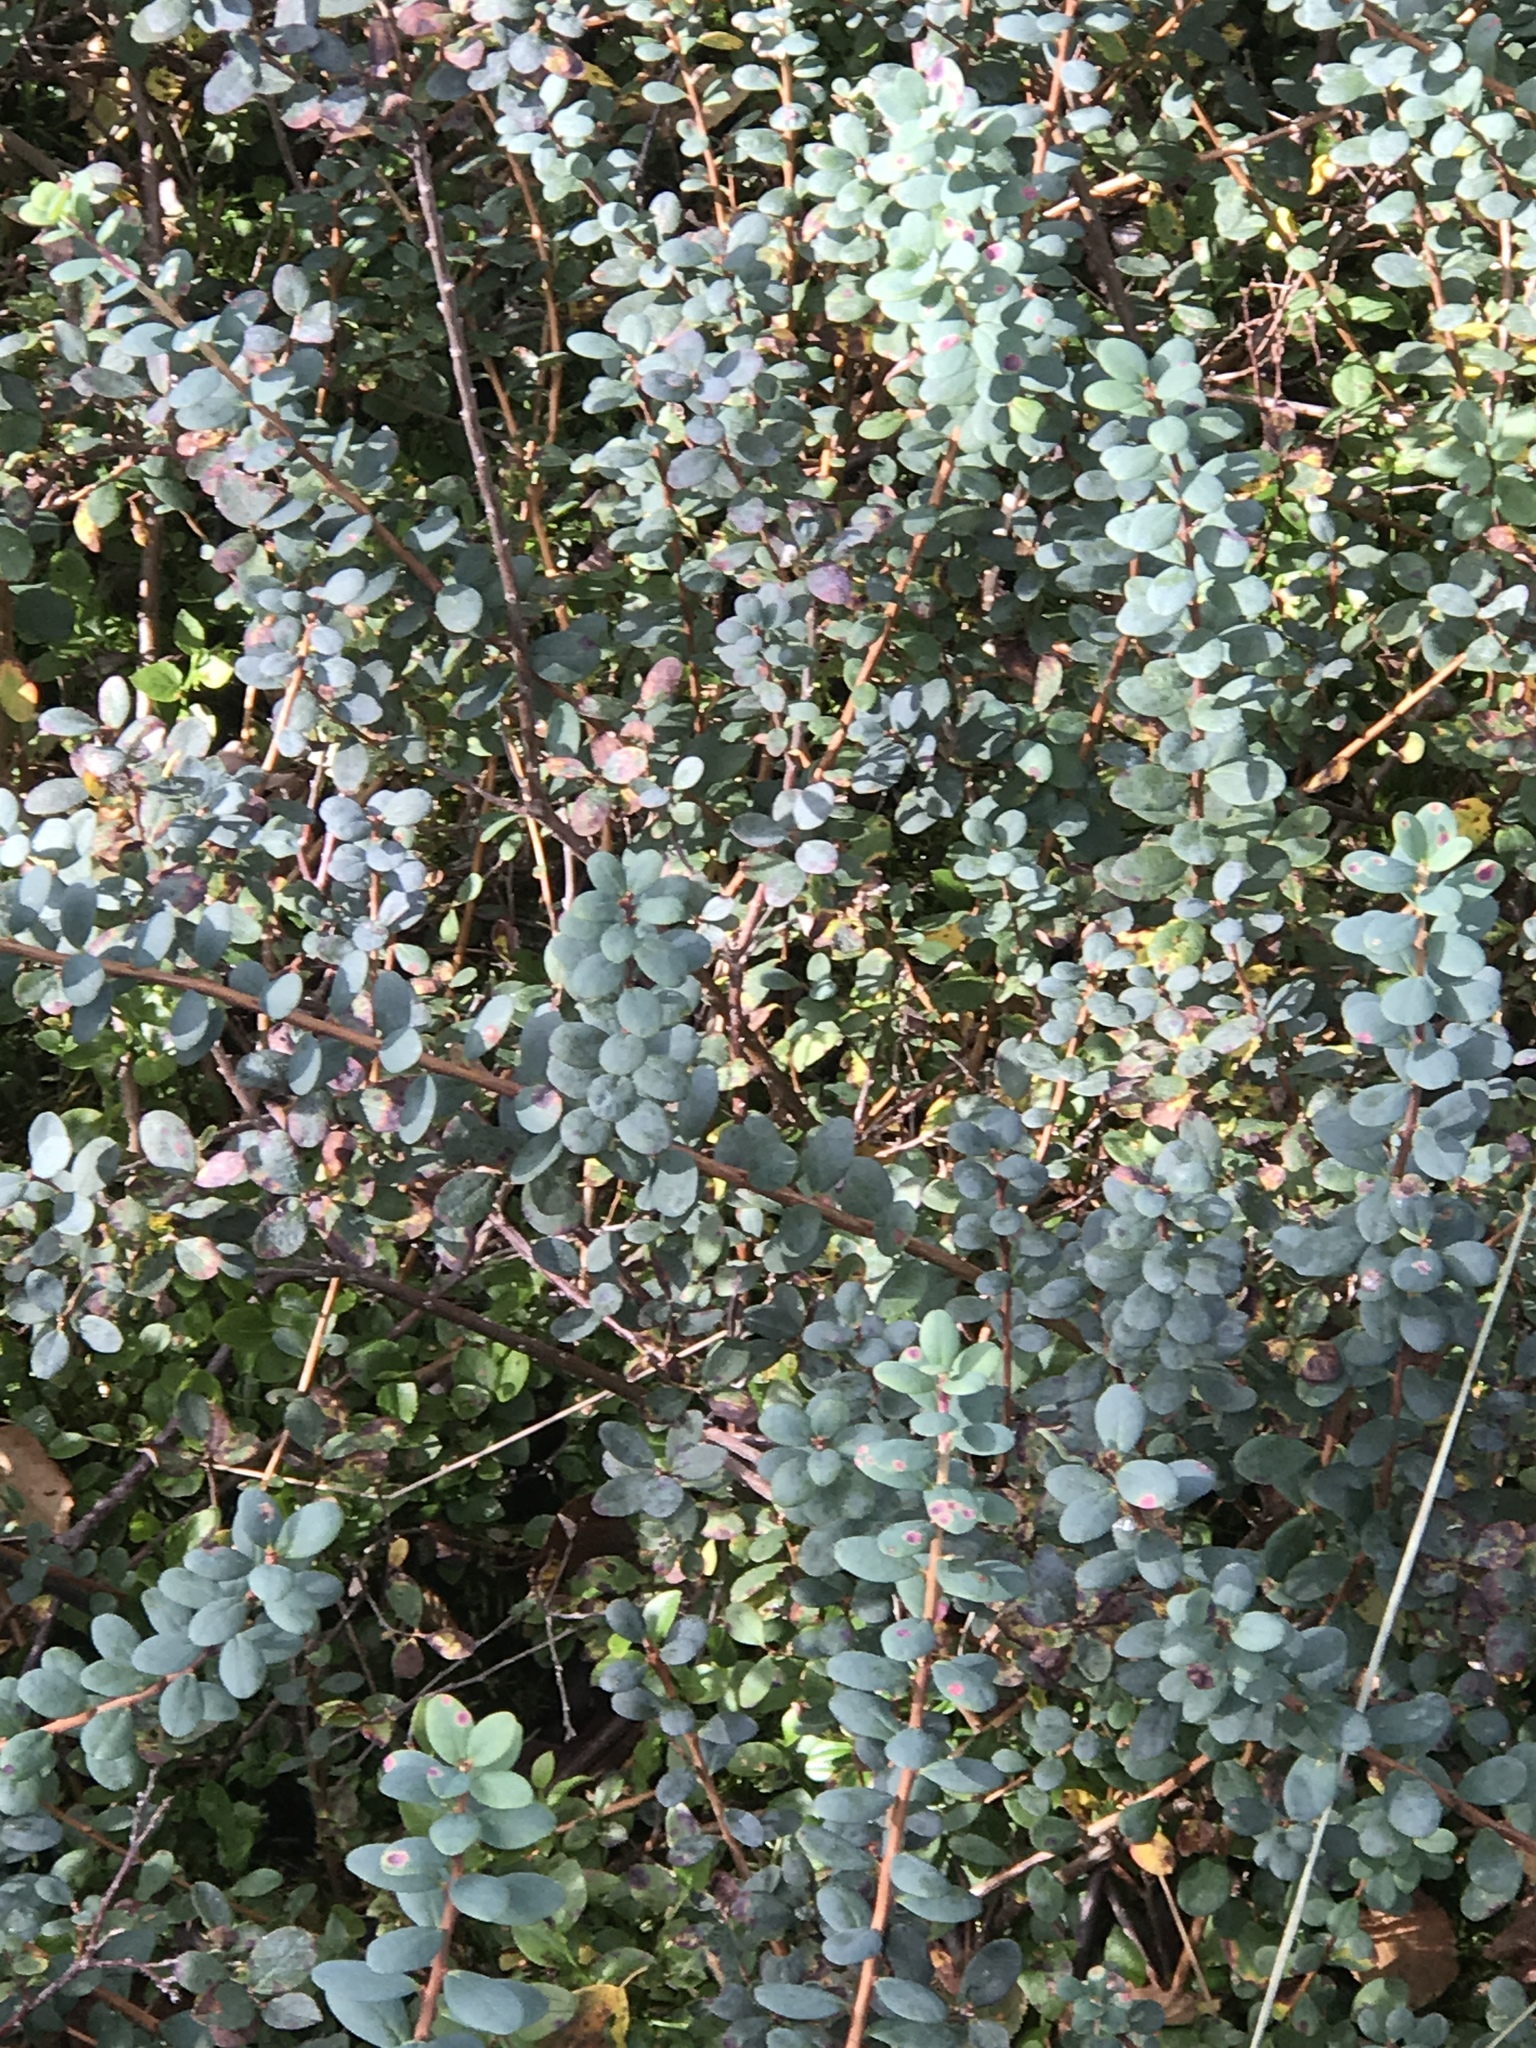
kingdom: Plantae
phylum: Tracheophyta
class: Magnoliopsida
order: Ericales
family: Ericaceae
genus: Vaccinium
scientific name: Vaccinium uliginosum
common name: Bog bilberry
